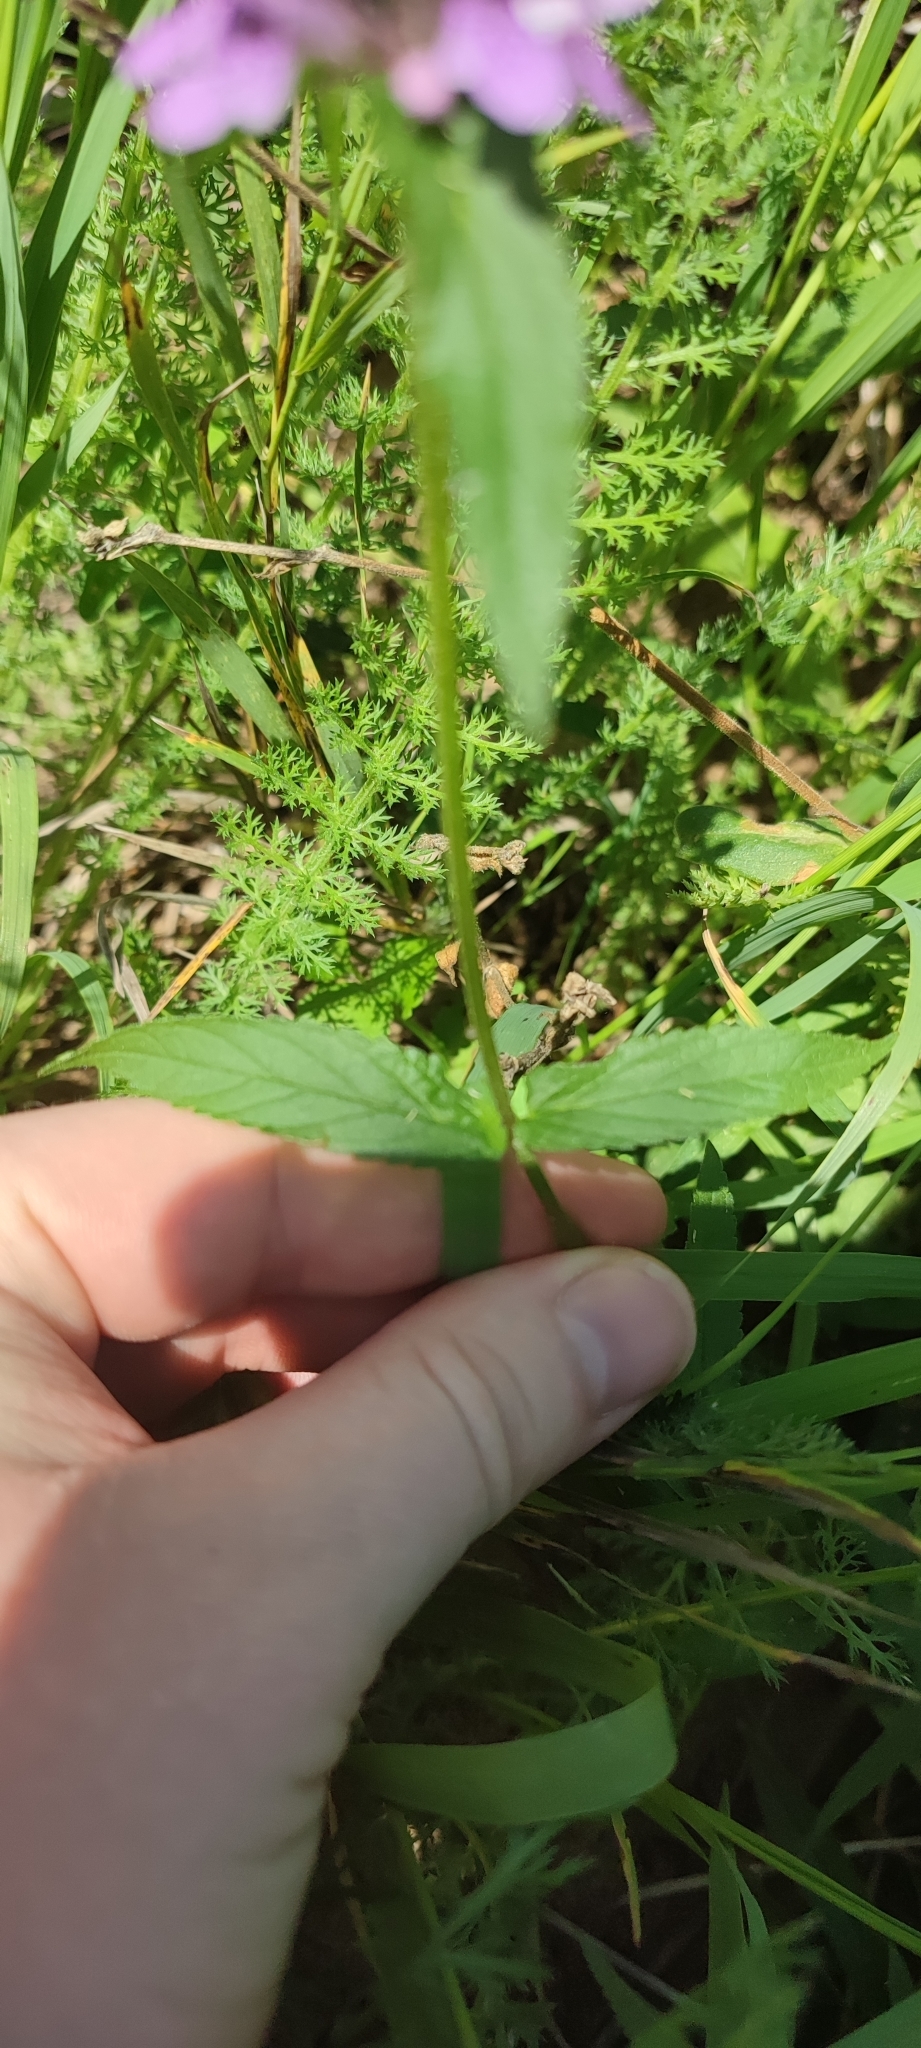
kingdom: Plantae
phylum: Tracheophyta
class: Magnoliopsida
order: Lamiales
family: Lamiaceae
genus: Stachys
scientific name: Stachys palustris
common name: Marsh woundwort
